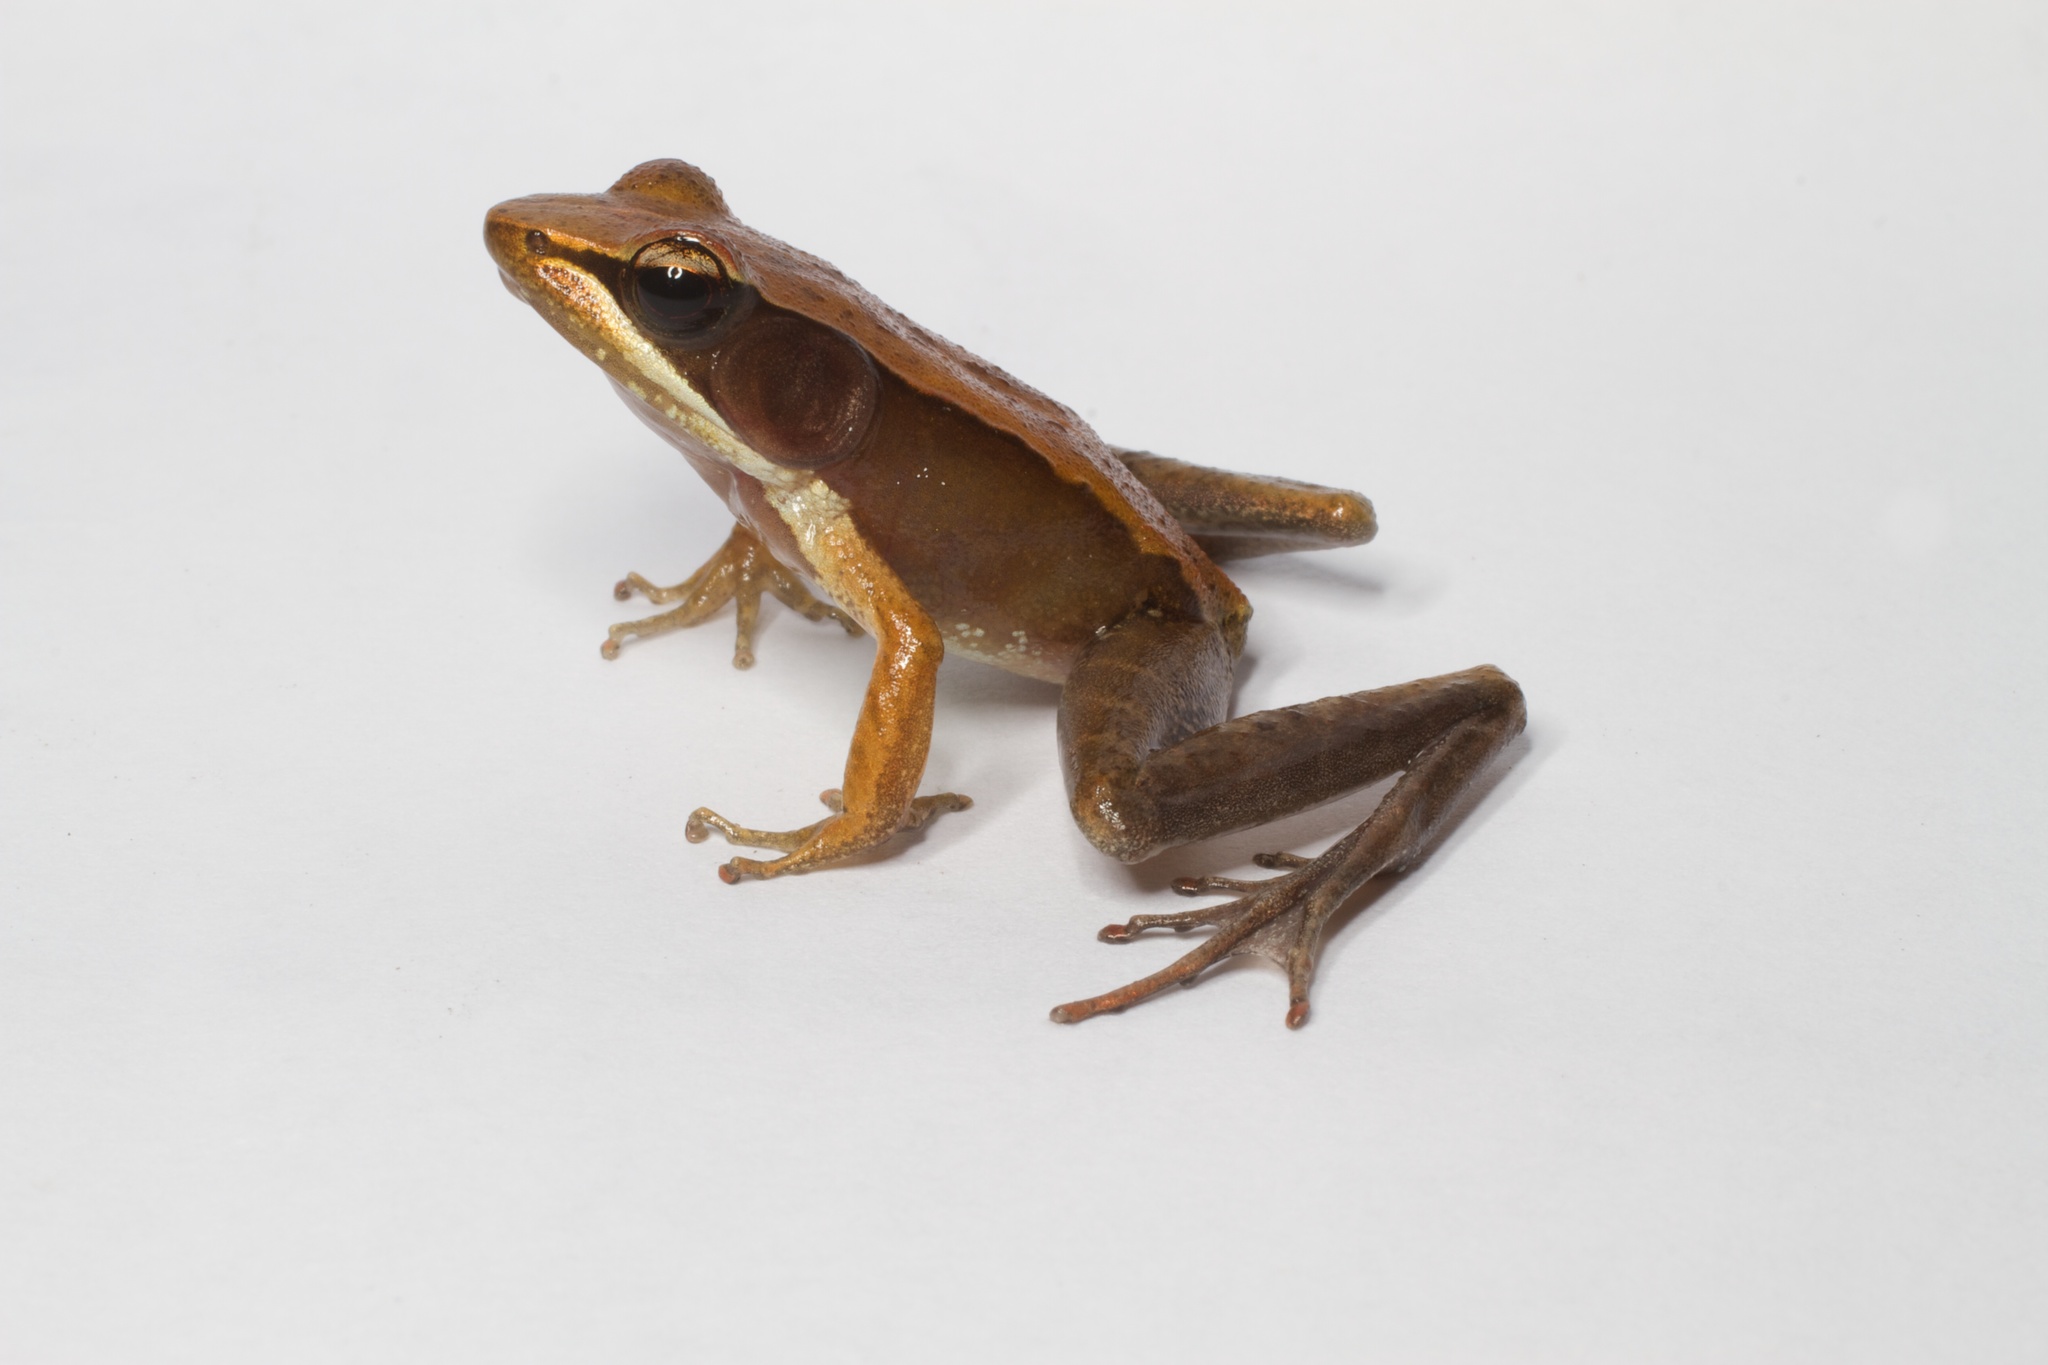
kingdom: Animalia
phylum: Chordata
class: Amphibia
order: Anura
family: Mantellidae
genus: Mantidactylus
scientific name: Mantidactylus melanopleura
